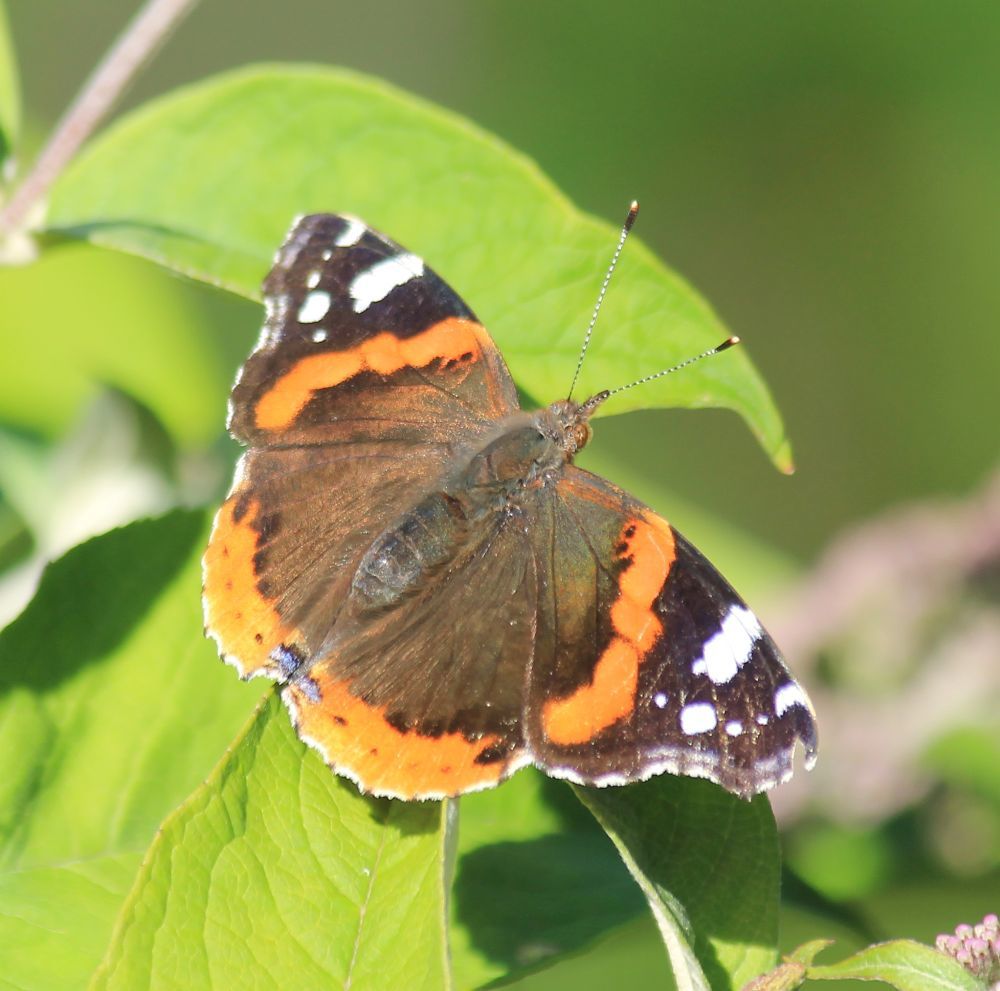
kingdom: Animalia
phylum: Arthropoda
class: Insecta
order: Lepidoptera
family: Nymphalidae
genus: Vanessa
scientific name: Vanessa atalanta
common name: Red admiral
